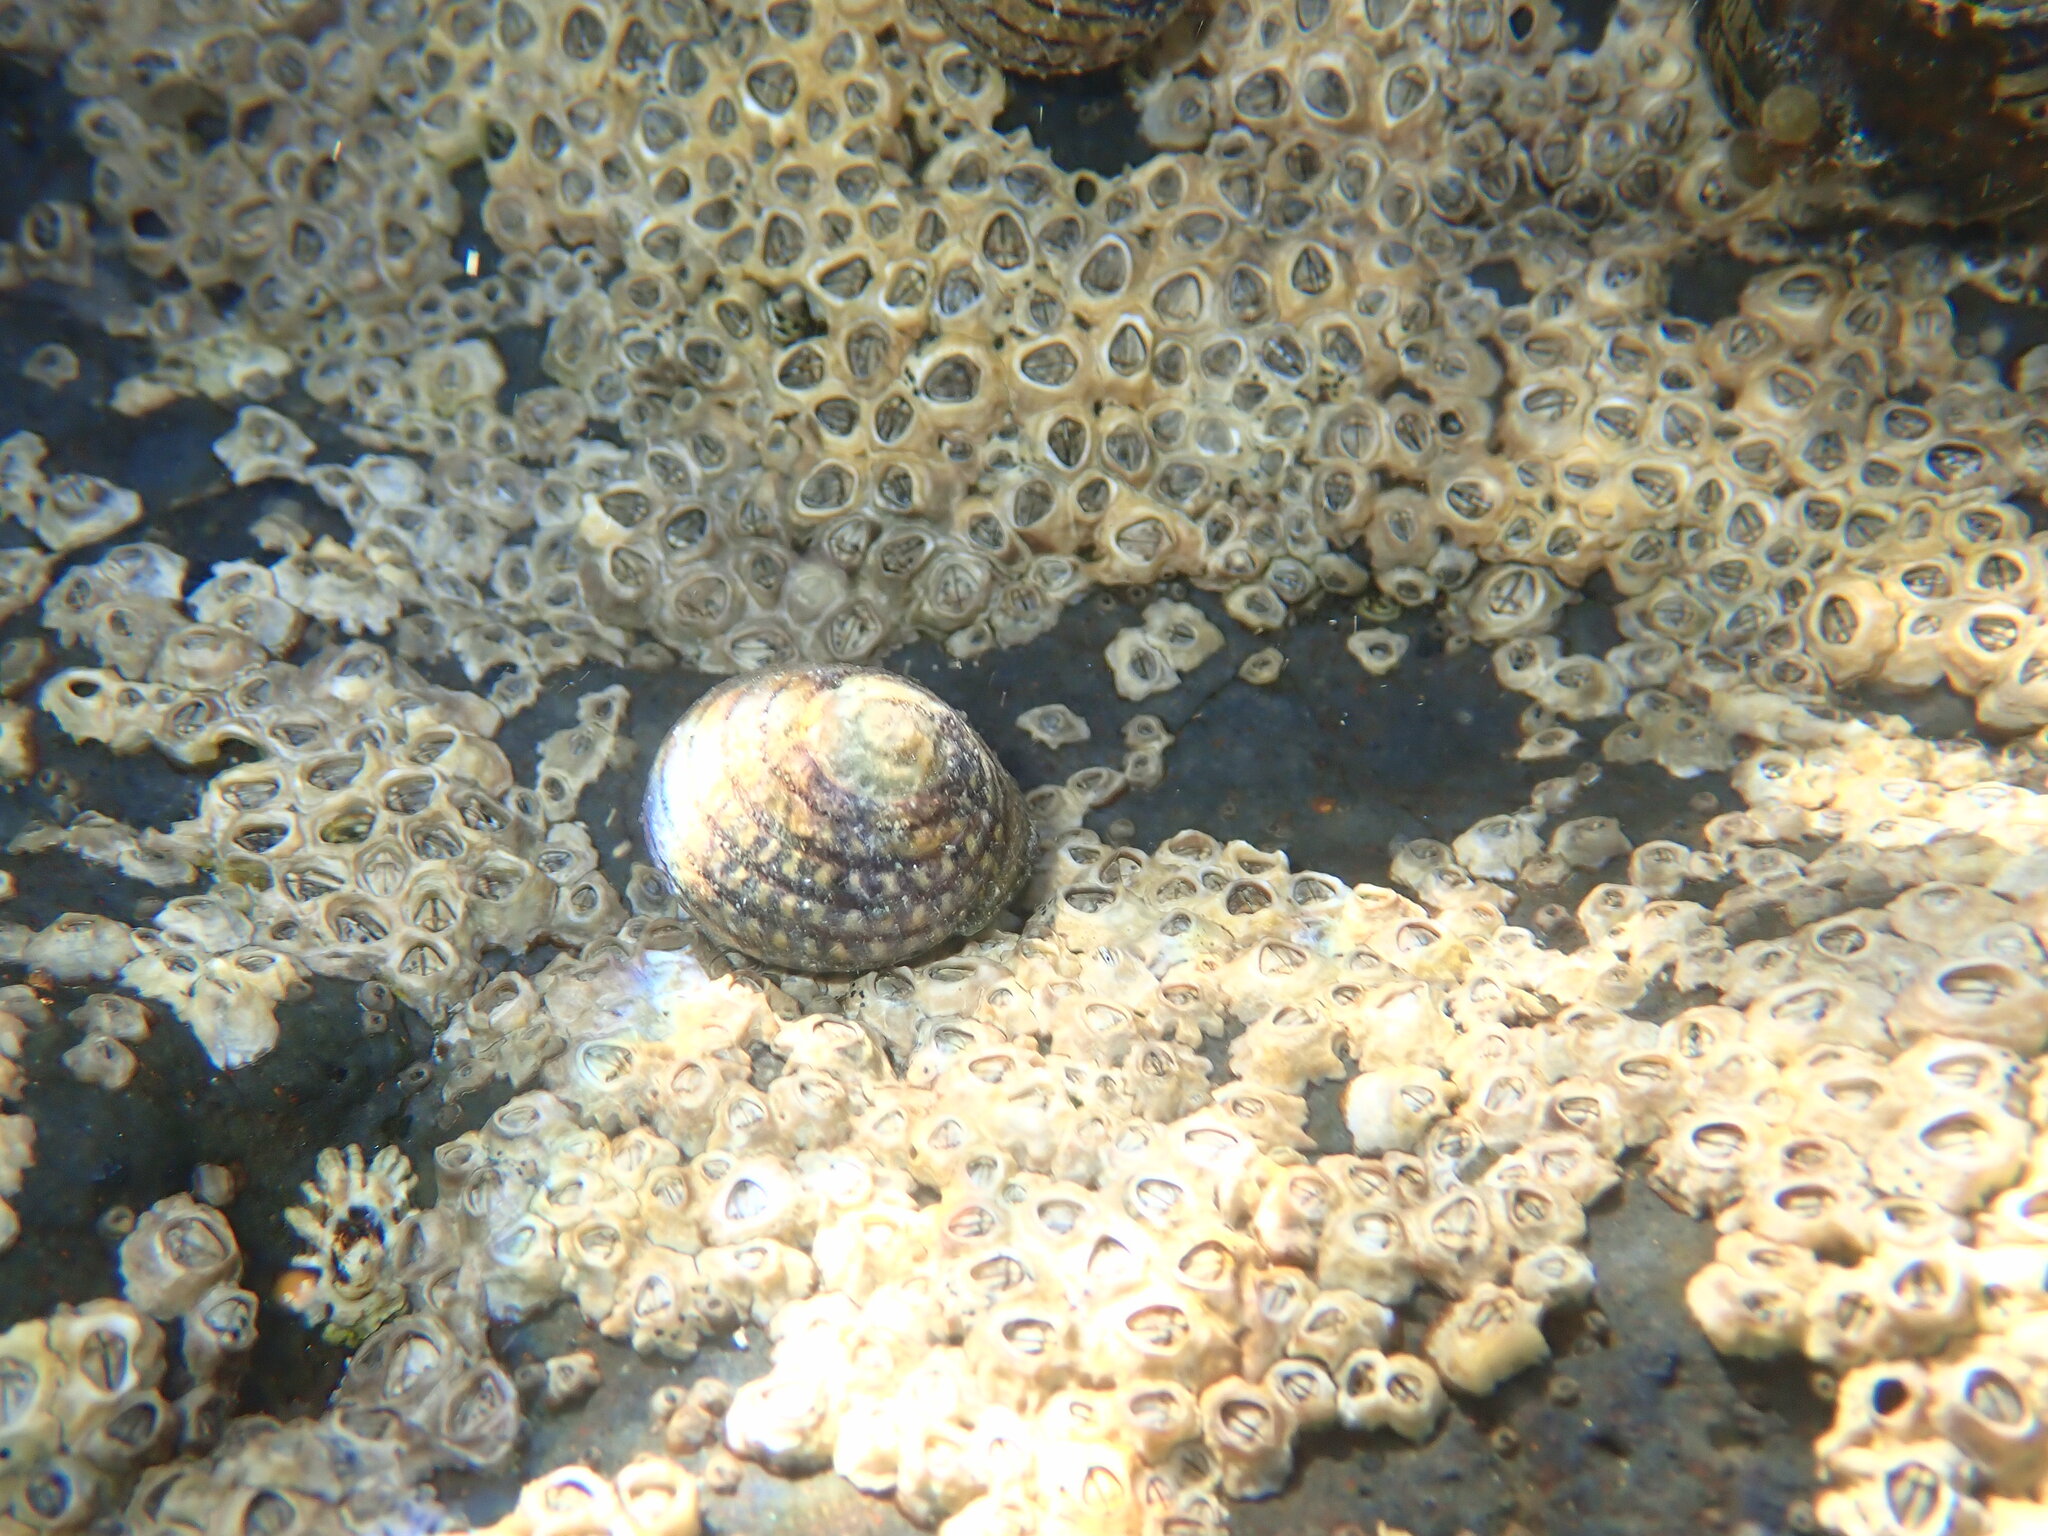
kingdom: Animalia
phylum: Mollusca
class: Gastropoda
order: Trochida
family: Trochidae
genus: Diloma
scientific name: Diloma aethiops
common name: Scorched monodont
